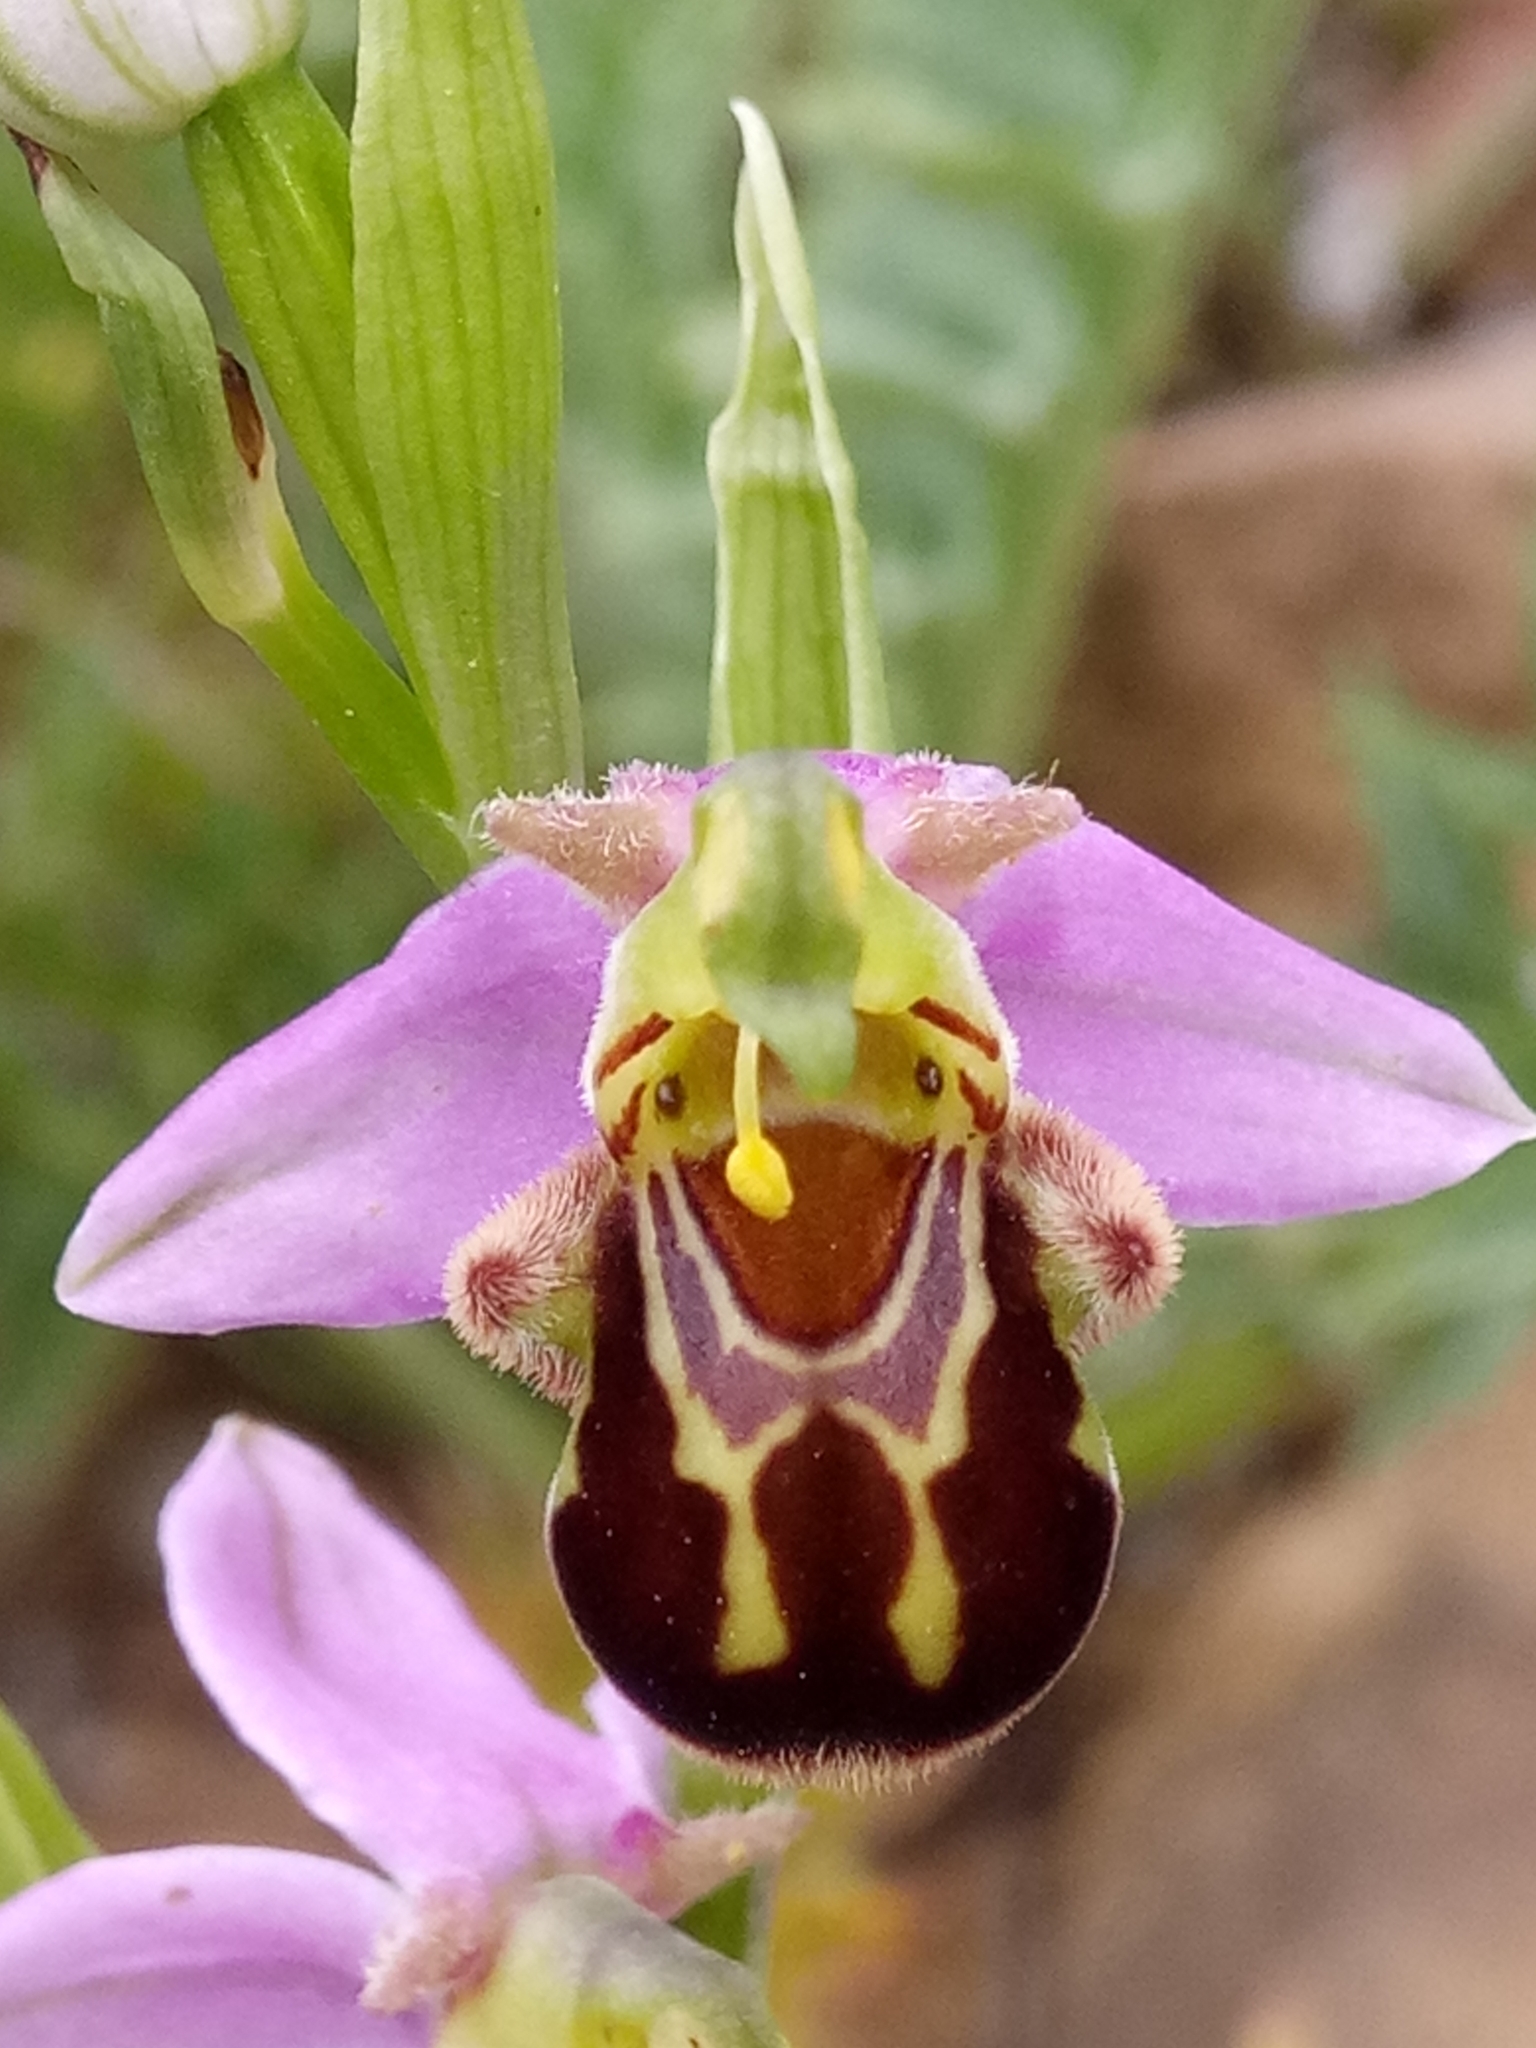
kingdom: Plantae
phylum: Tracheophyta
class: Liliopsida
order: Asparagales
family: Orchidaceae
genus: Ophrys
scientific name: Ophrys apifera
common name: Bee orchid
